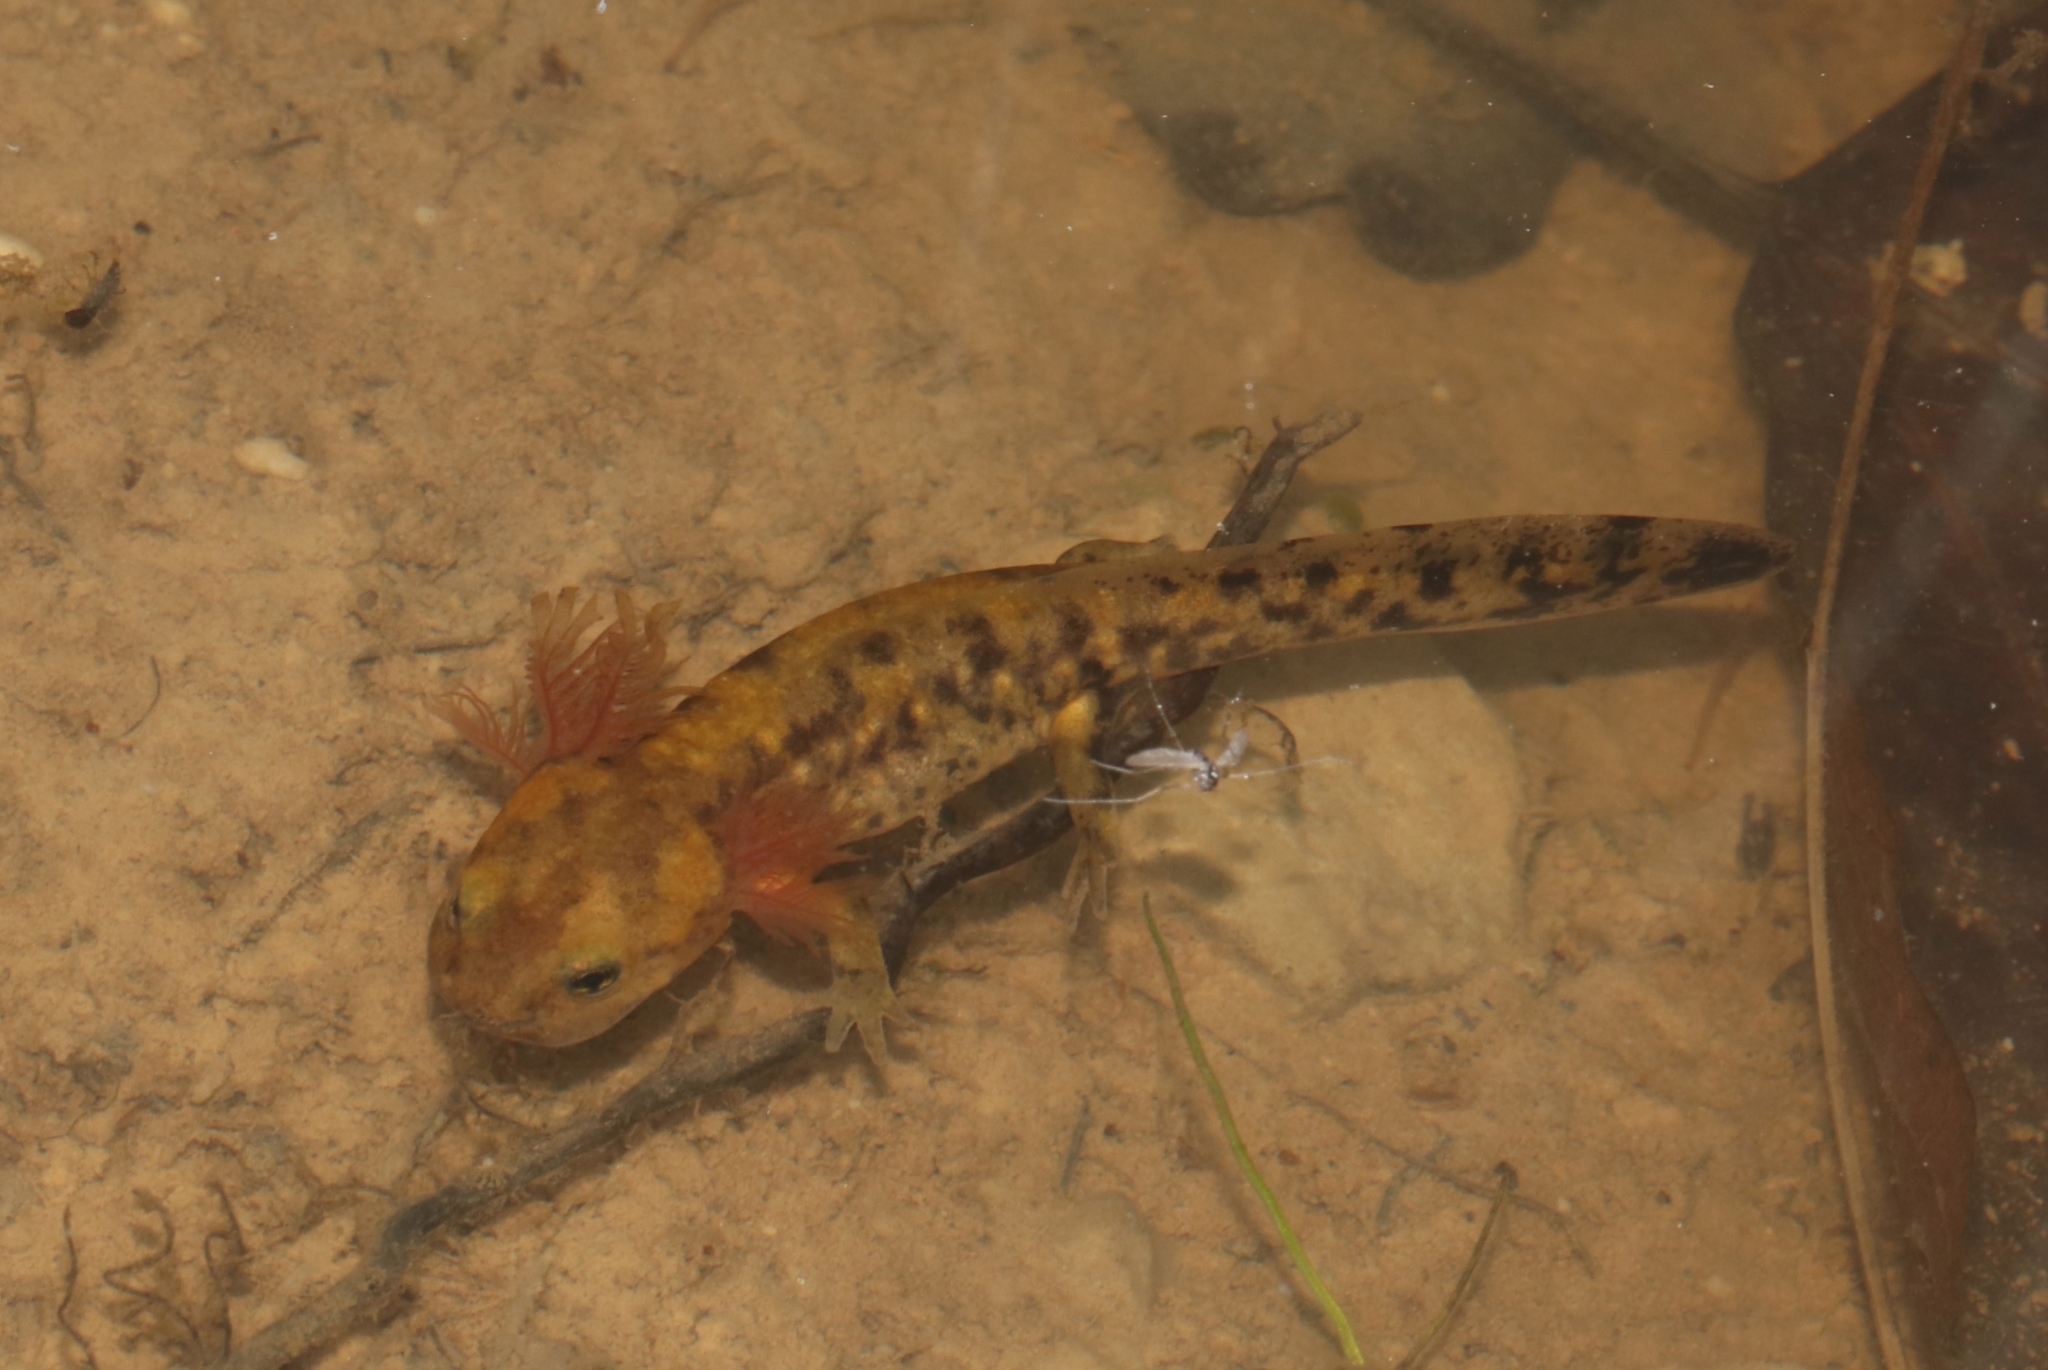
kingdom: Animalia
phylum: Chordata
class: Amphibia
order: Caudata
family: Salamandridae
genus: Salamandra
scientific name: Salamandra salamandra
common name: Fire salamander
